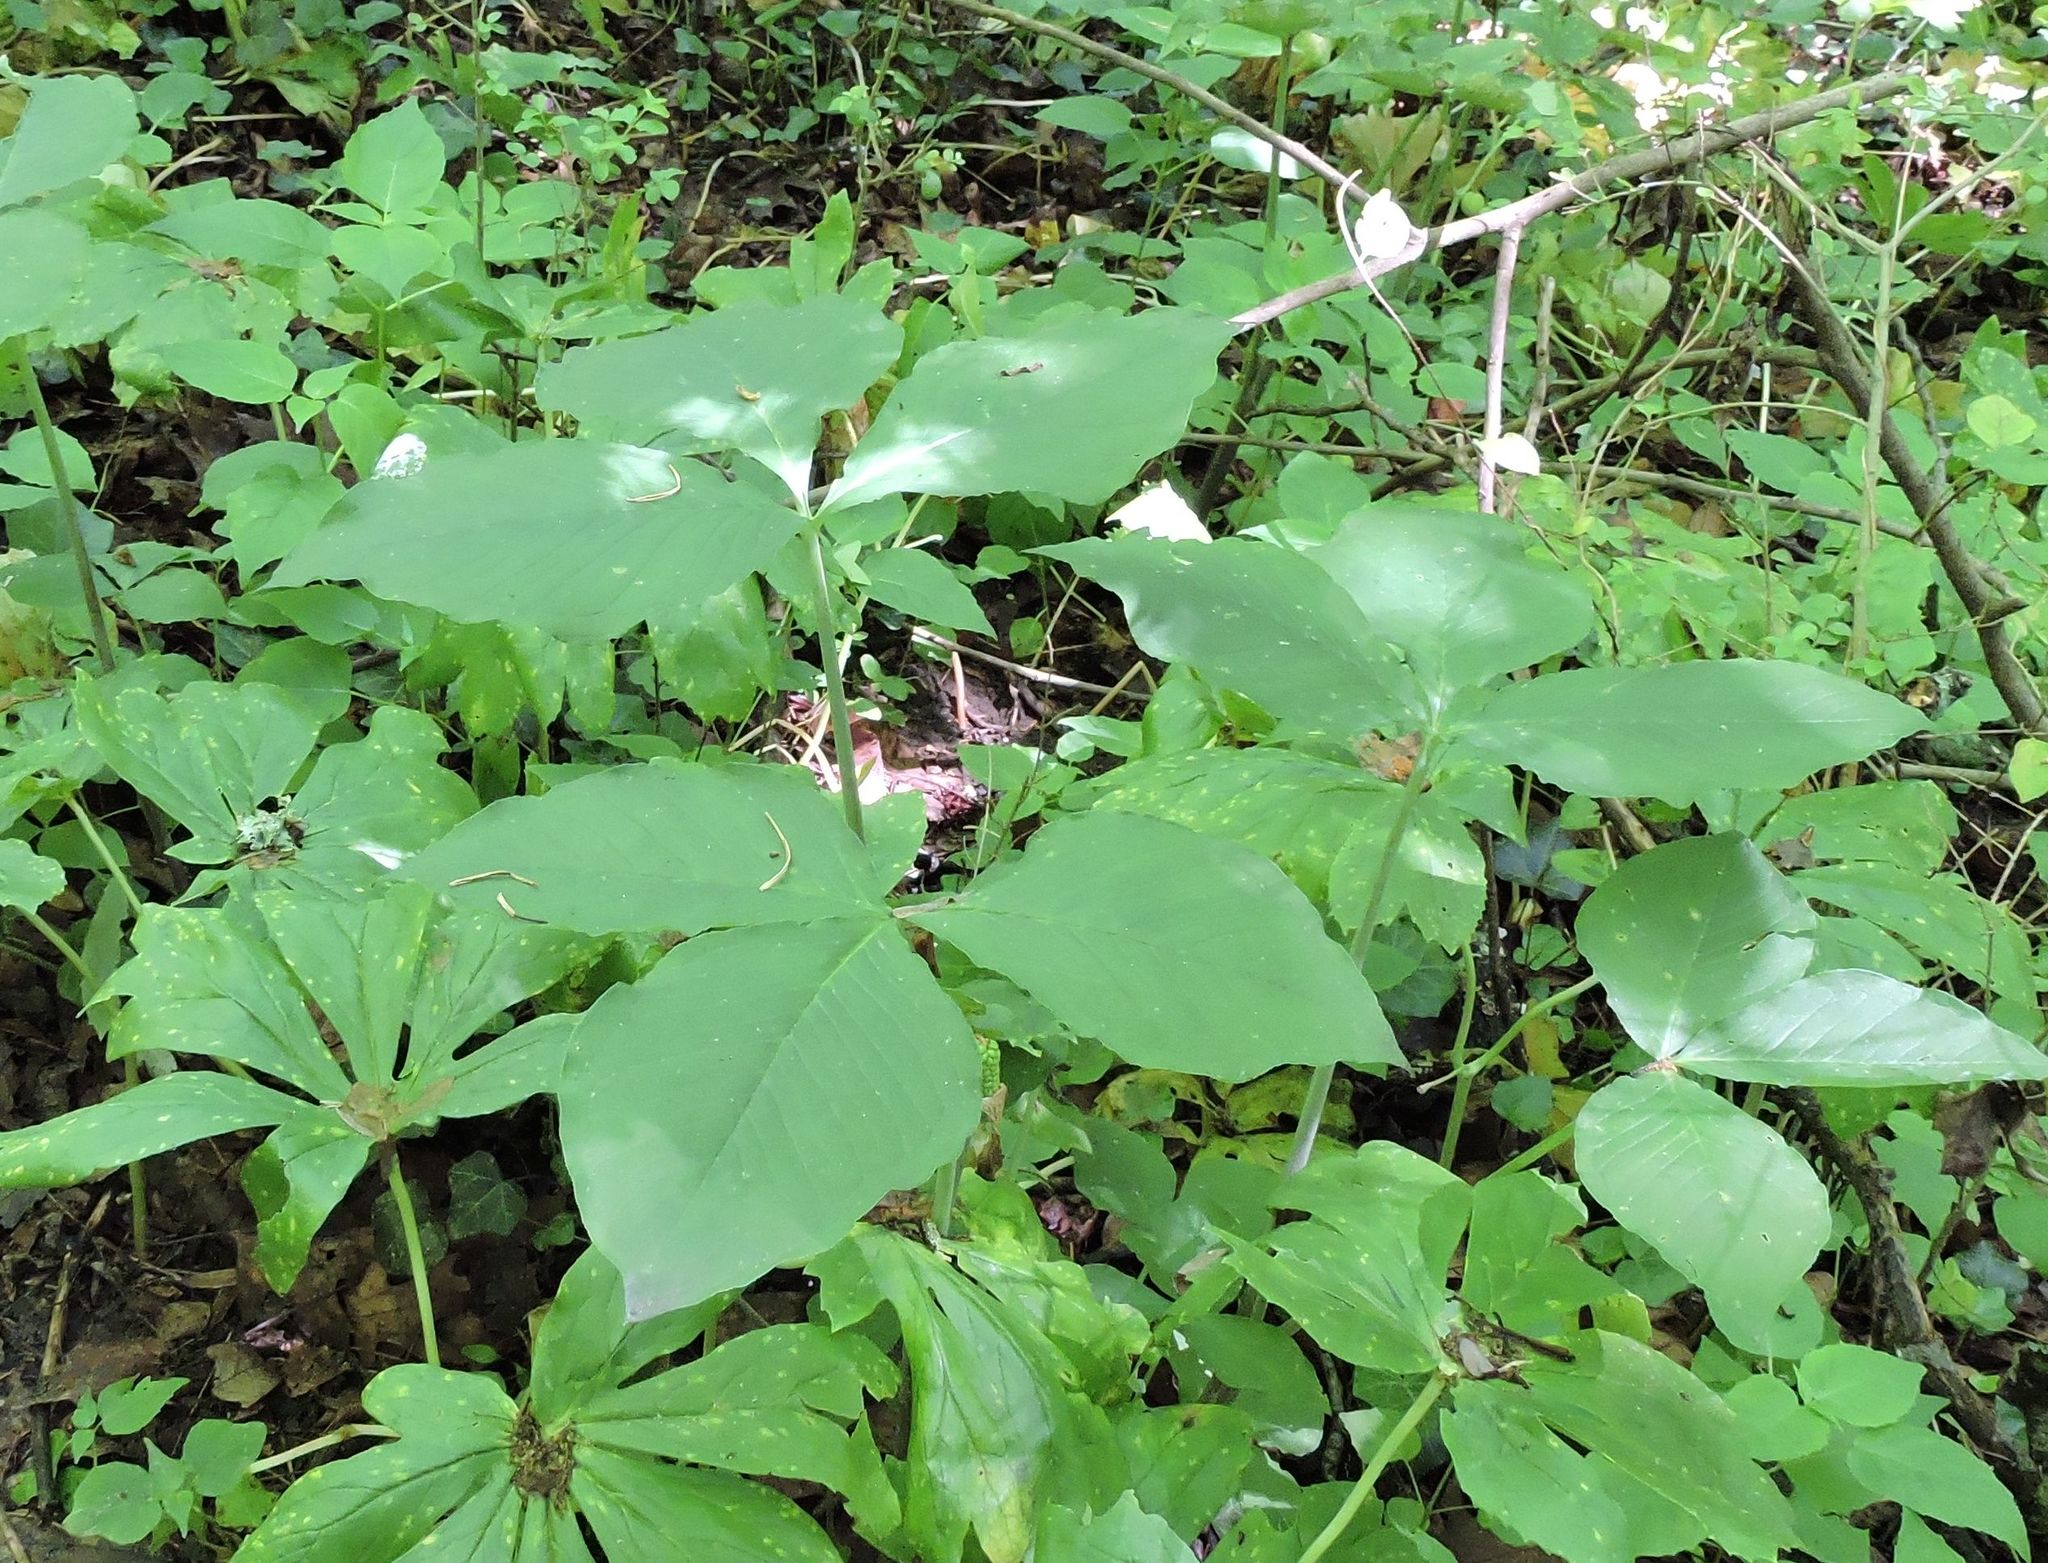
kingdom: Plantae
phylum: Tracheophyta
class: Liliopsida
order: Alismatales
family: Araceae
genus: Arisaema
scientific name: Arisaema triphyllum
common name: Jack-in-the-pulpit
